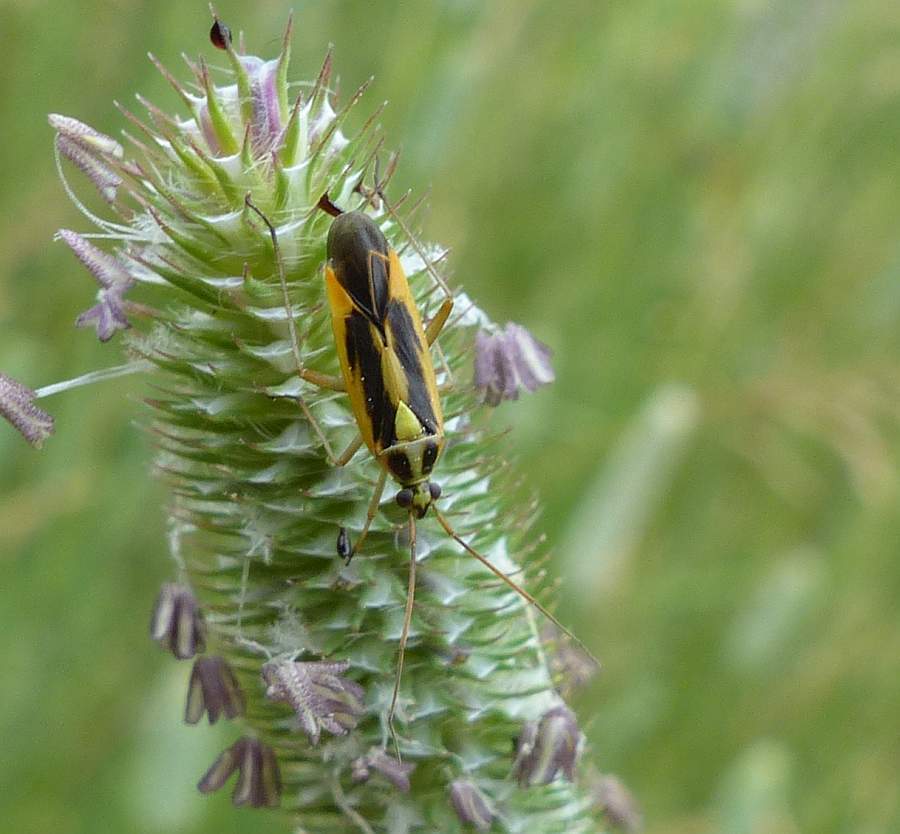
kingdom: Animalia
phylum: Arthropoda
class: Insecta
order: Hemiptera
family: Miridae
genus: Stenotus
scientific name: Stenotus binotatus
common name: Plant bug
